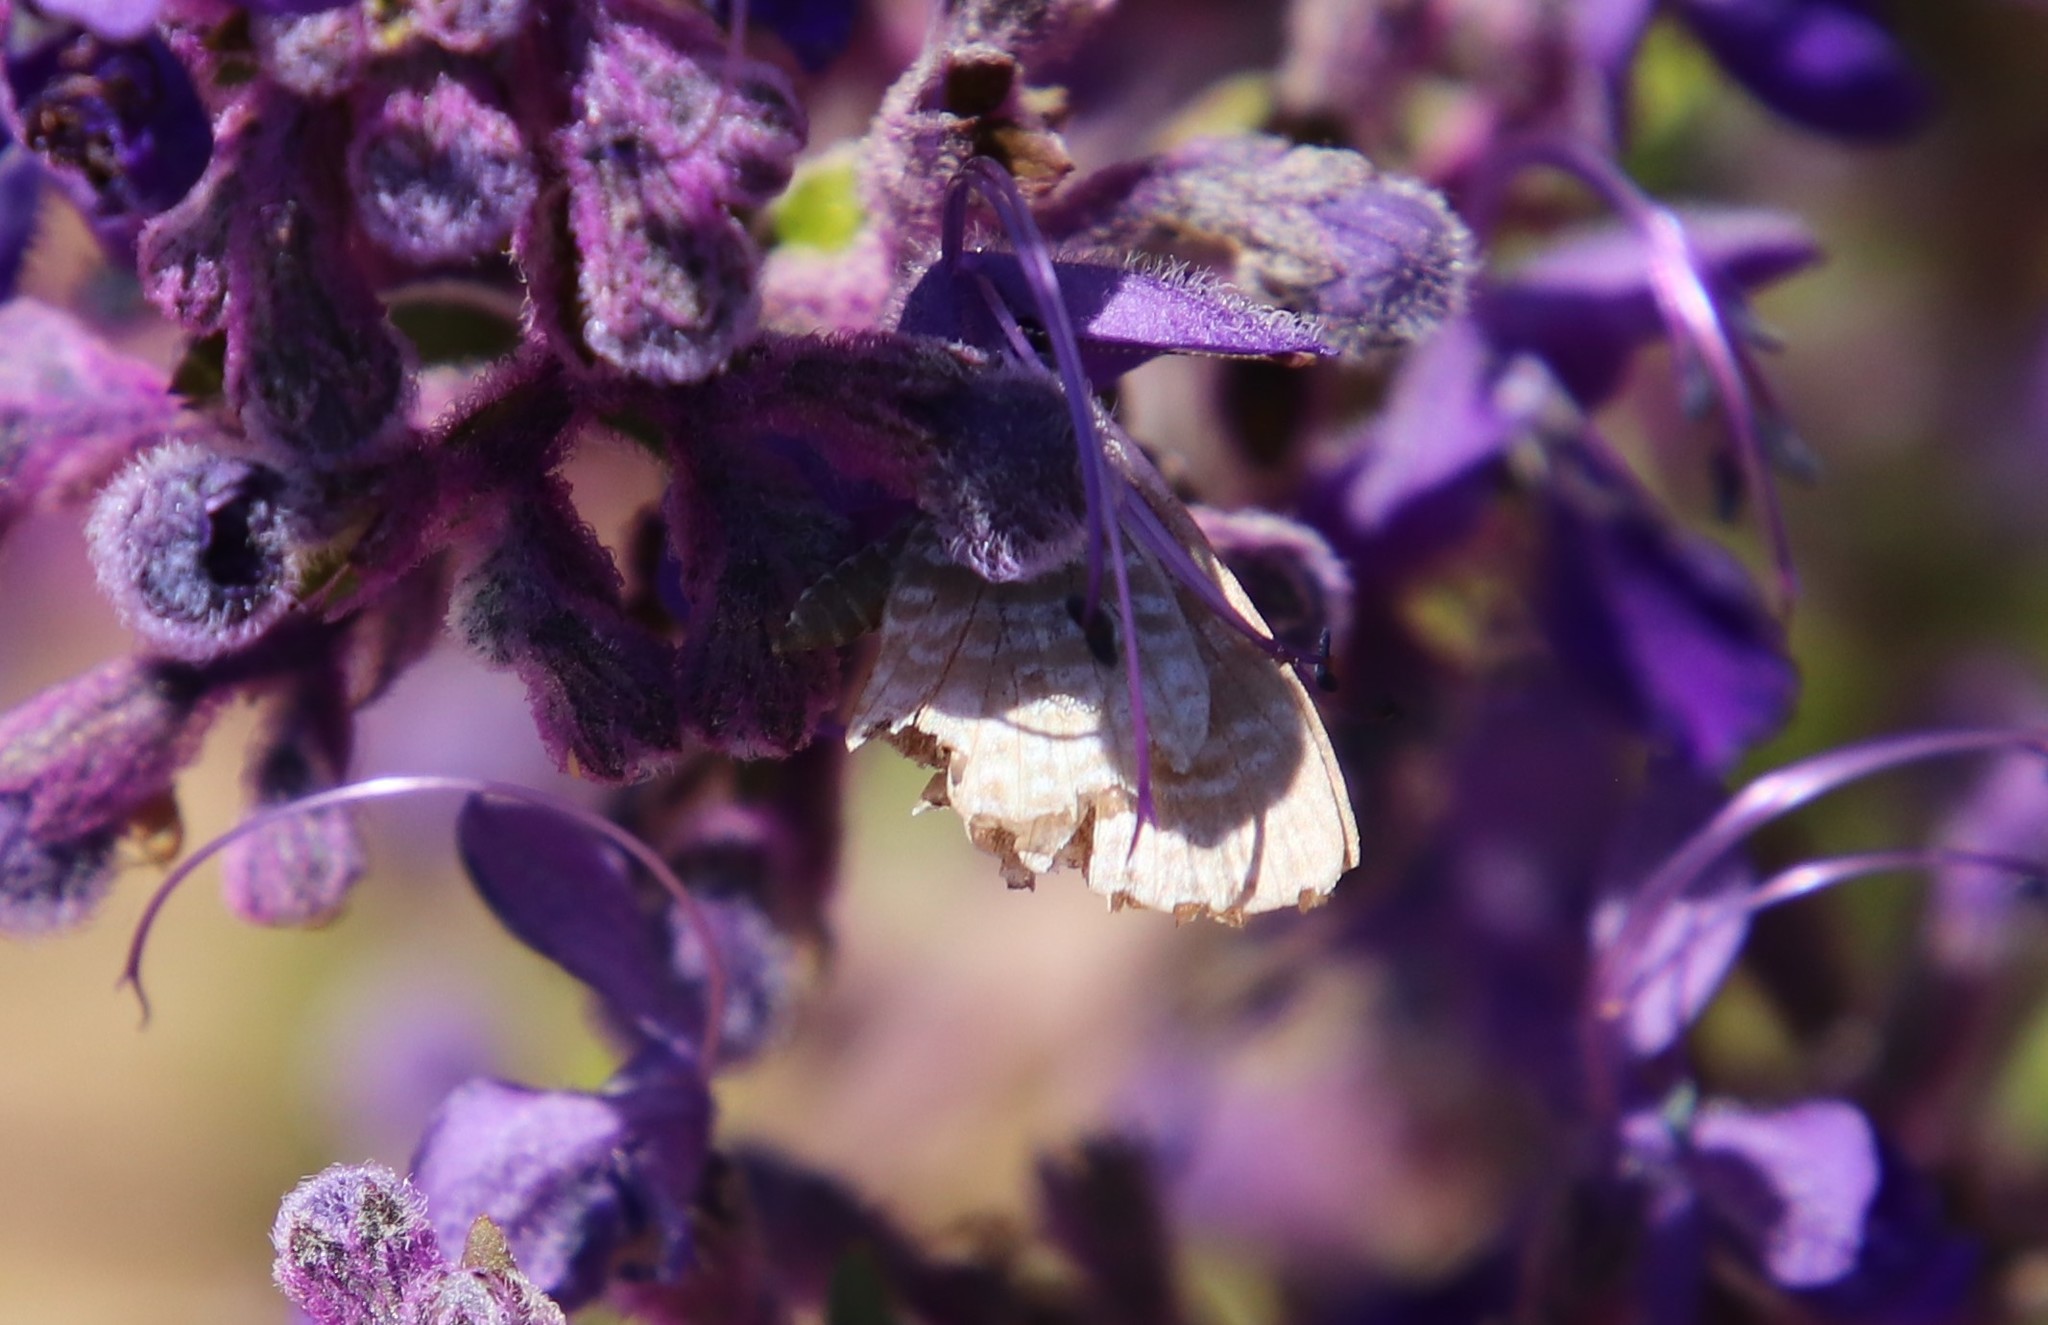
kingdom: Animalia
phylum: Arthropoda
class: Insecta
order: Lepidoptera
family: Lycaenidae
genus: Leptotes
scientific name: Leptotes marina
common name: Marine blue
